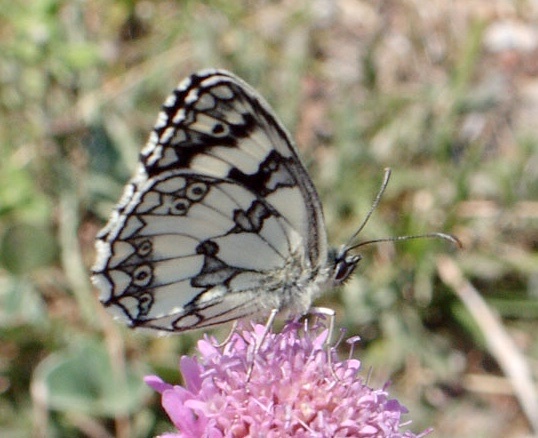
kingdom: Animalia
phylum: Arthropoda
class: Insecta
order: Lepidoptera
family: Nymphalidae
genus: Melanargia
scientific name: Melanargia galathea
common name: Marbled white
